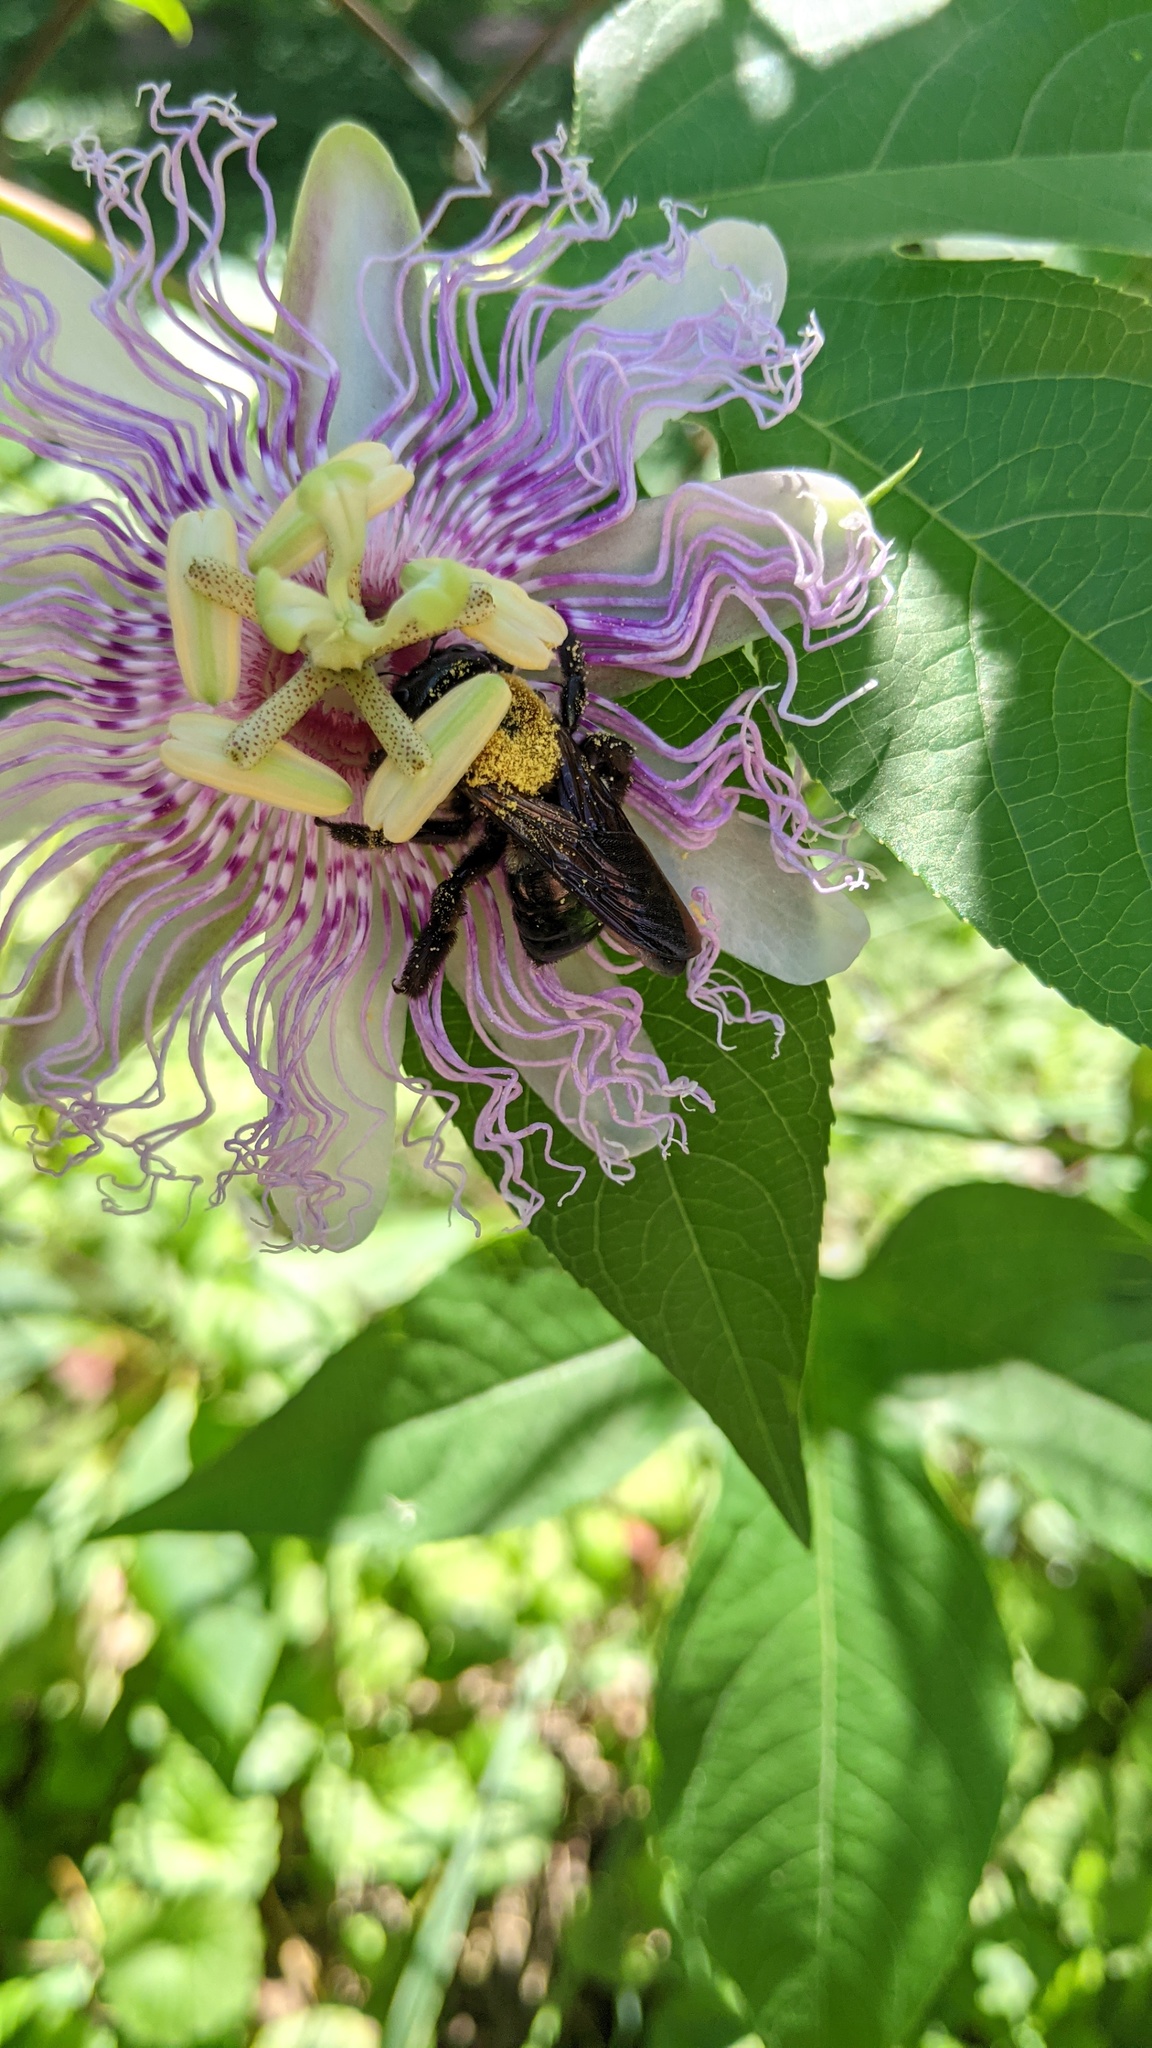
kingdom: Animalia
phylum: Arthropoda
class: Insecta
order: Hymenoptera
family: Apidae
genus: Xylocopa
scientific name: Xylocopa virginica
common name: Carpenter bee
